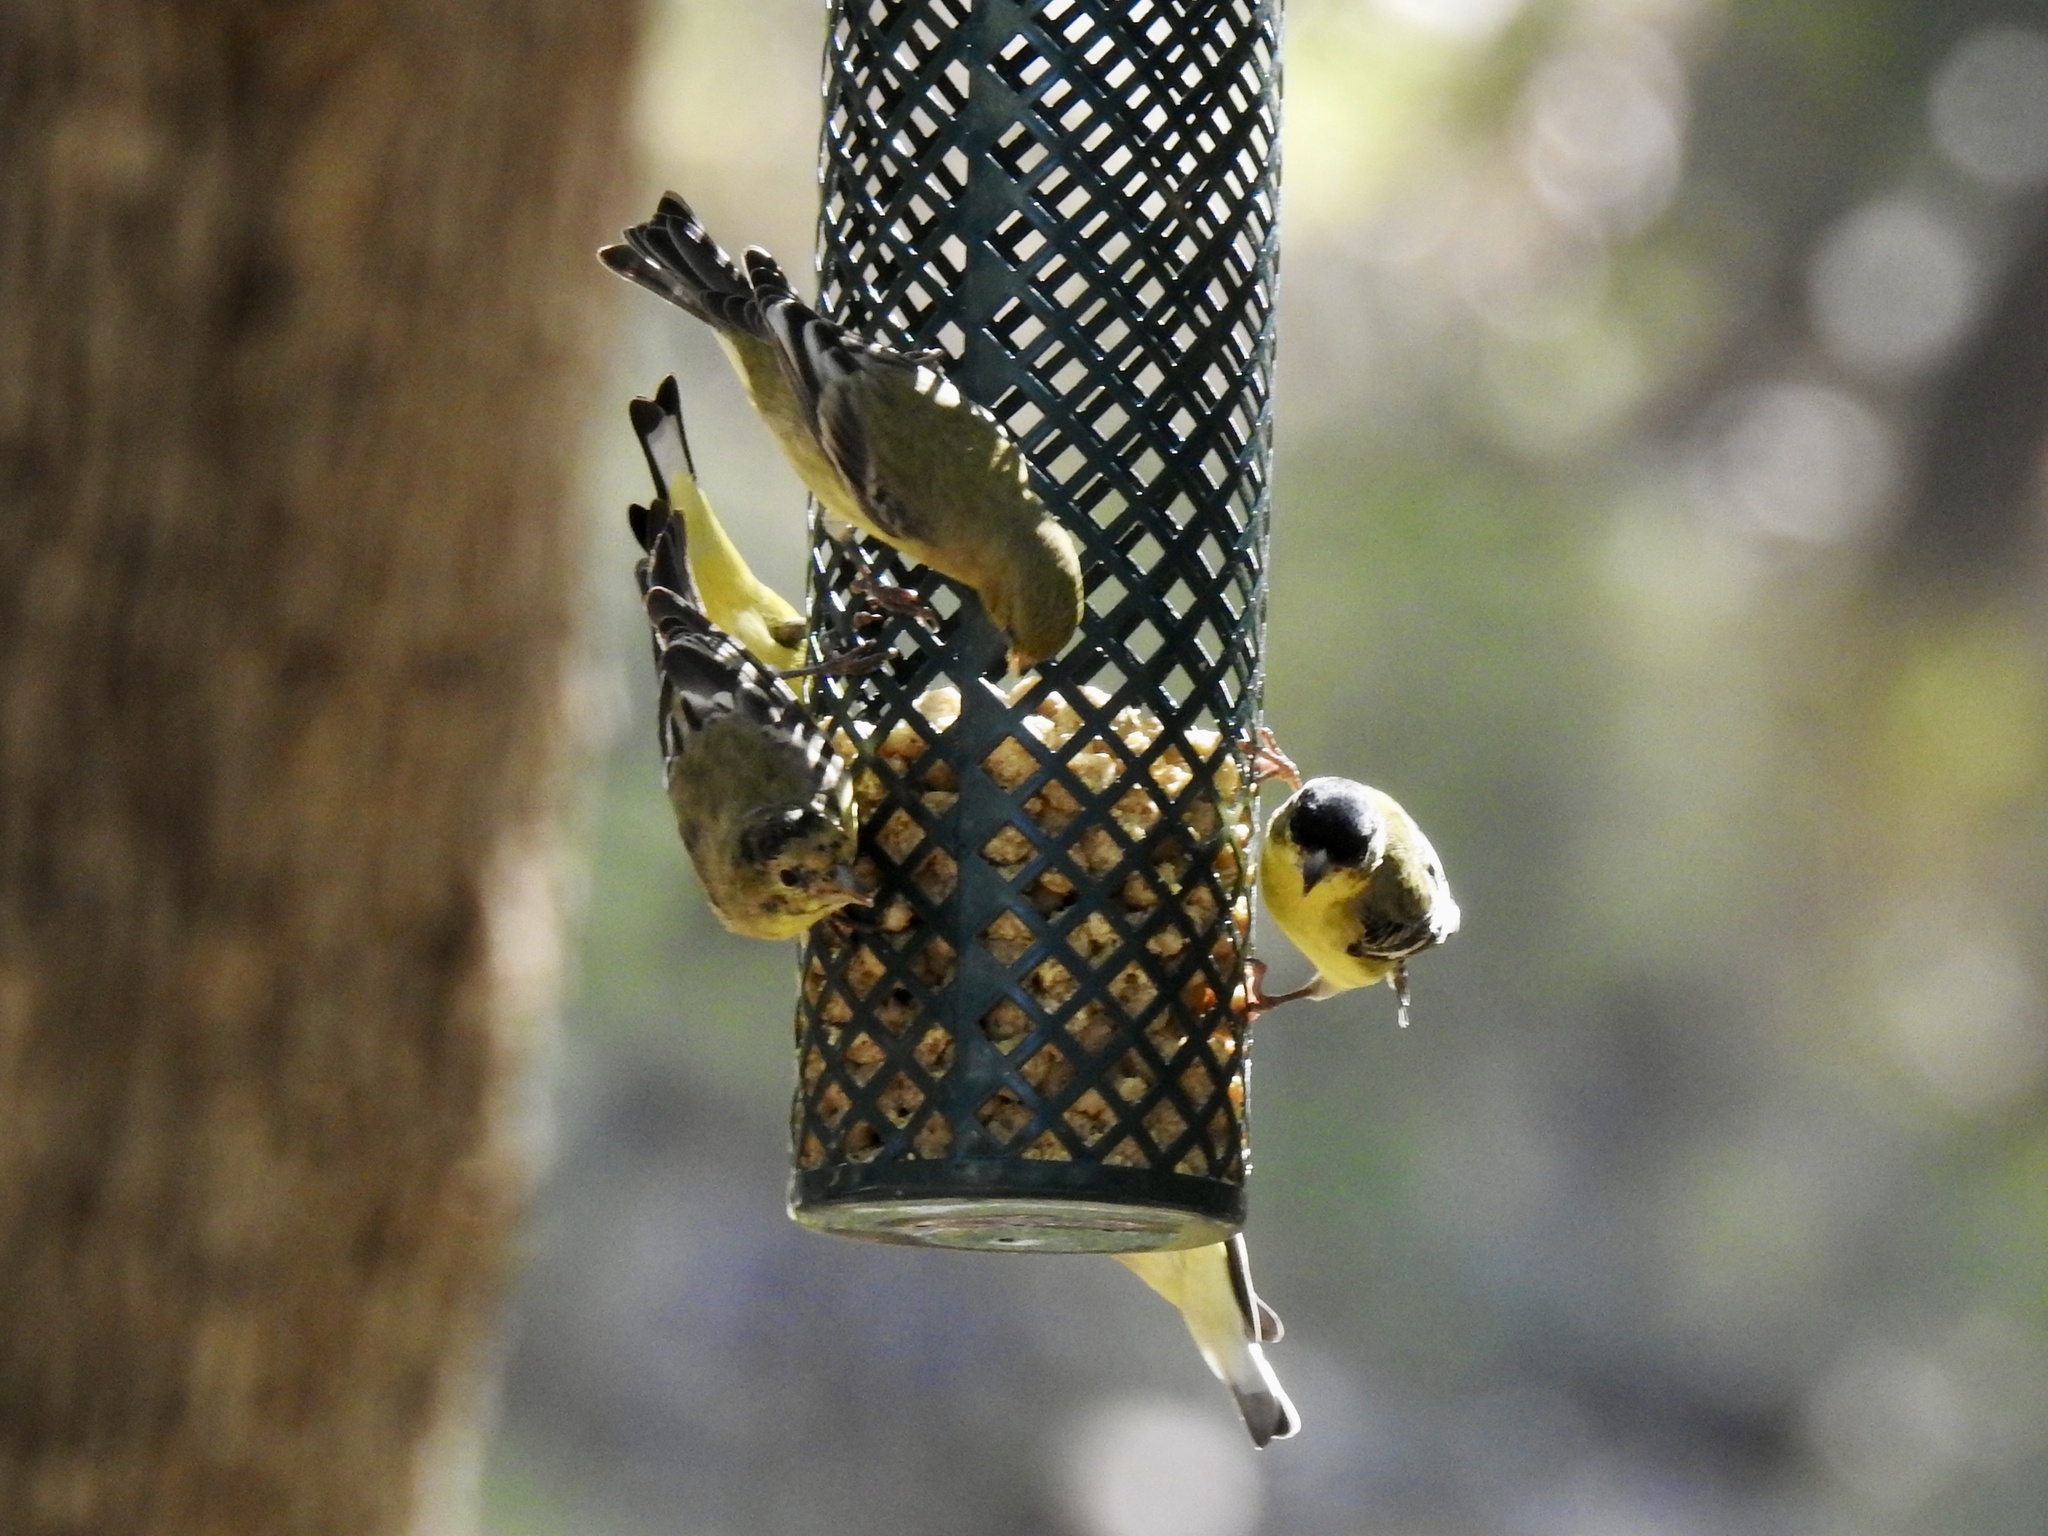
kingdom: Animalia
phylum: Chordata
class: Aves
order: Passeriformes
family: Fringillidae
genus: Spinus
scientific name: Spinus psaltria
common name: Lesser goldfinch
